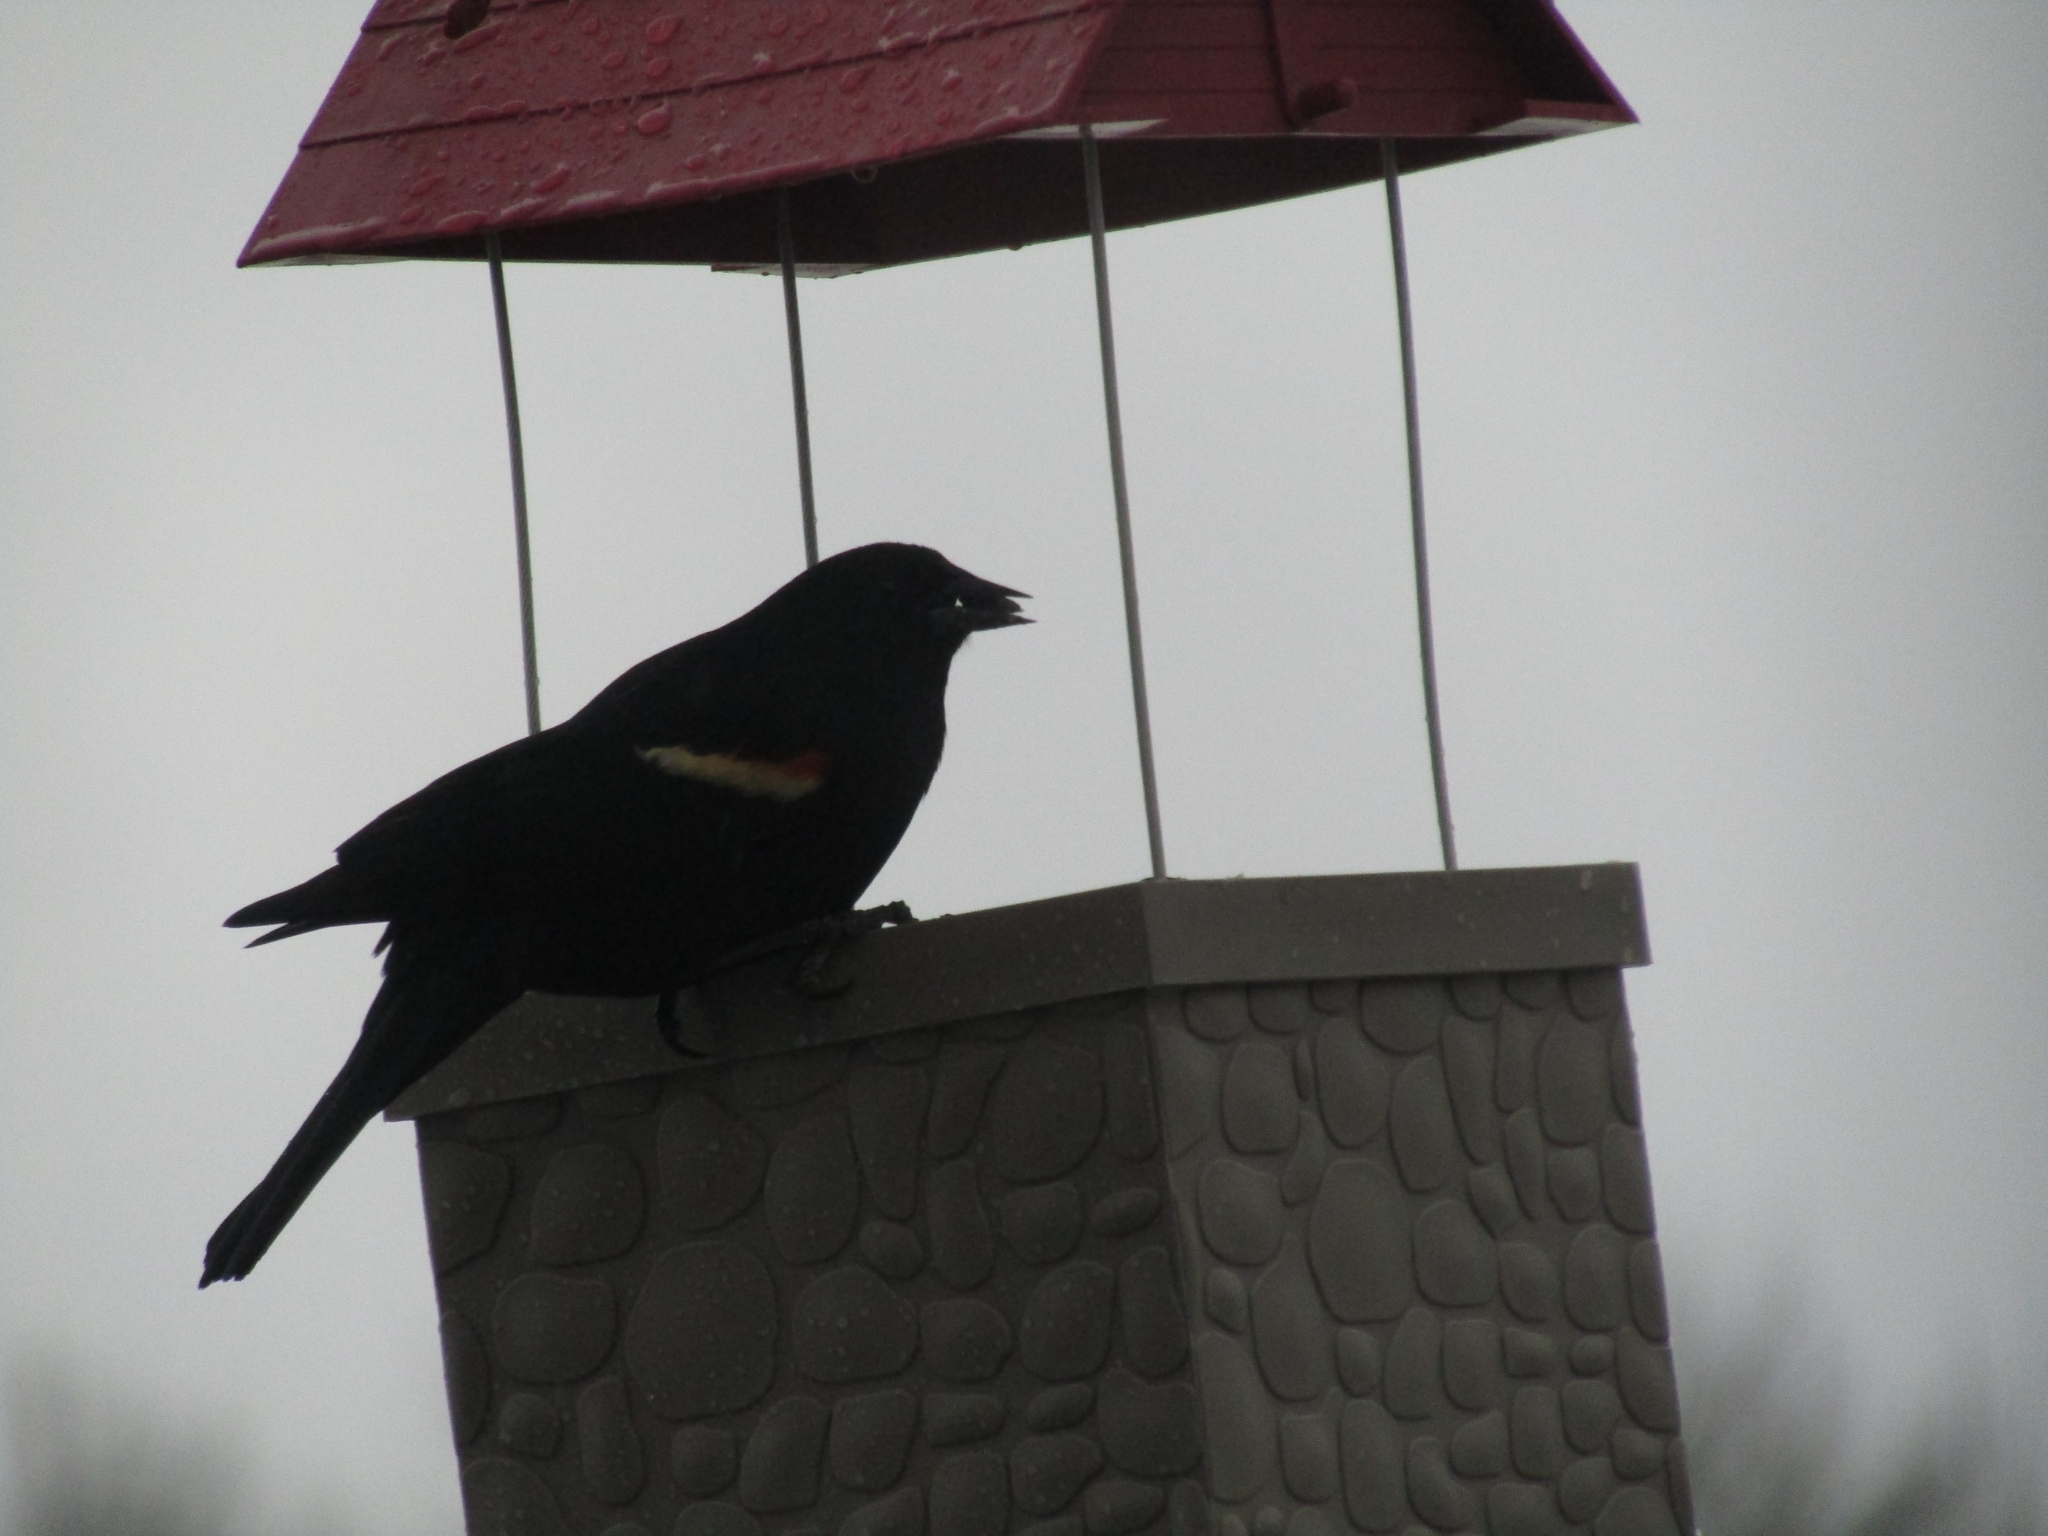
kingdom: Animalia
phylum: Chordata
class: Aves
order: Passeriformes
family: Icteridae
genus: Agelaius
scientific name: Agelaius phoeniceus
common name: Red-winged blackbird
